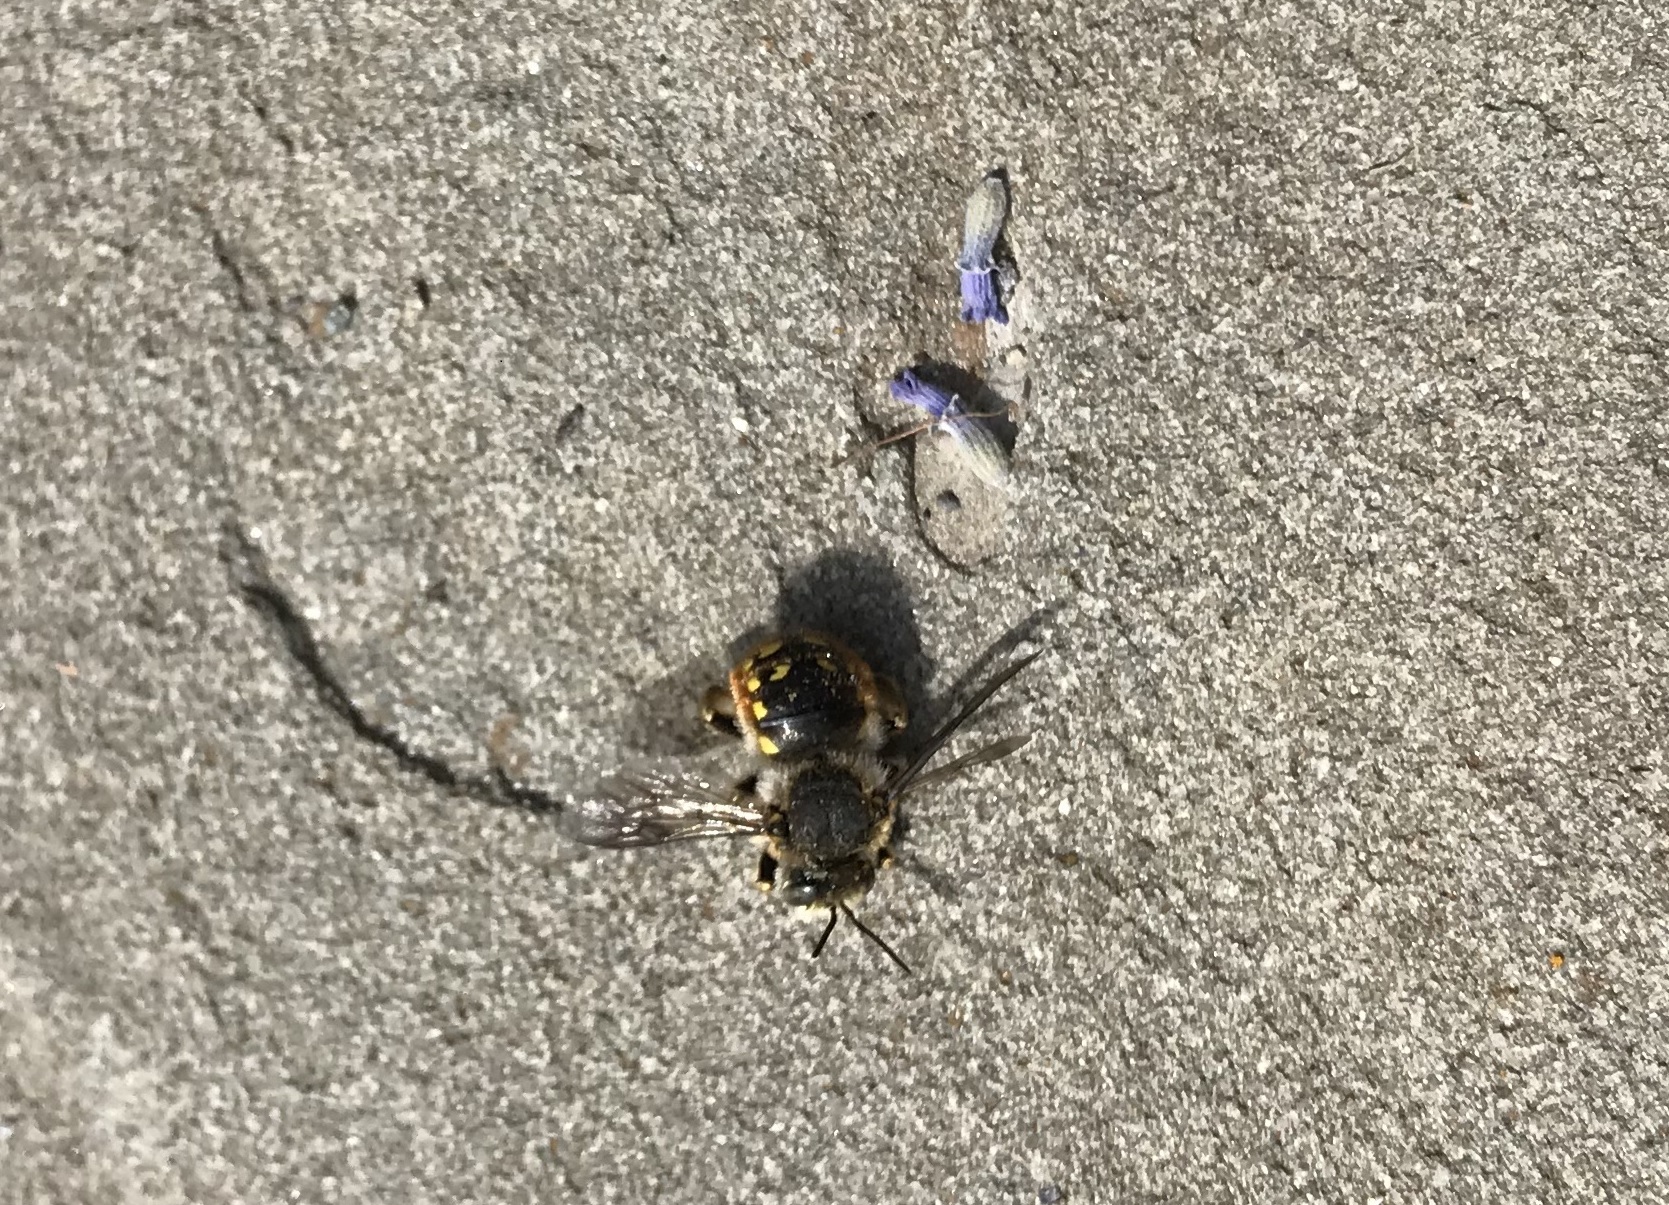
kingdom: Animalia
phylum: Arthropoda
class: Insecta
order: Hymenoptera
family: Megachilidae
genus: Anthidium
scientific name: Anthidium manicatum
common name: Wool carder bee
